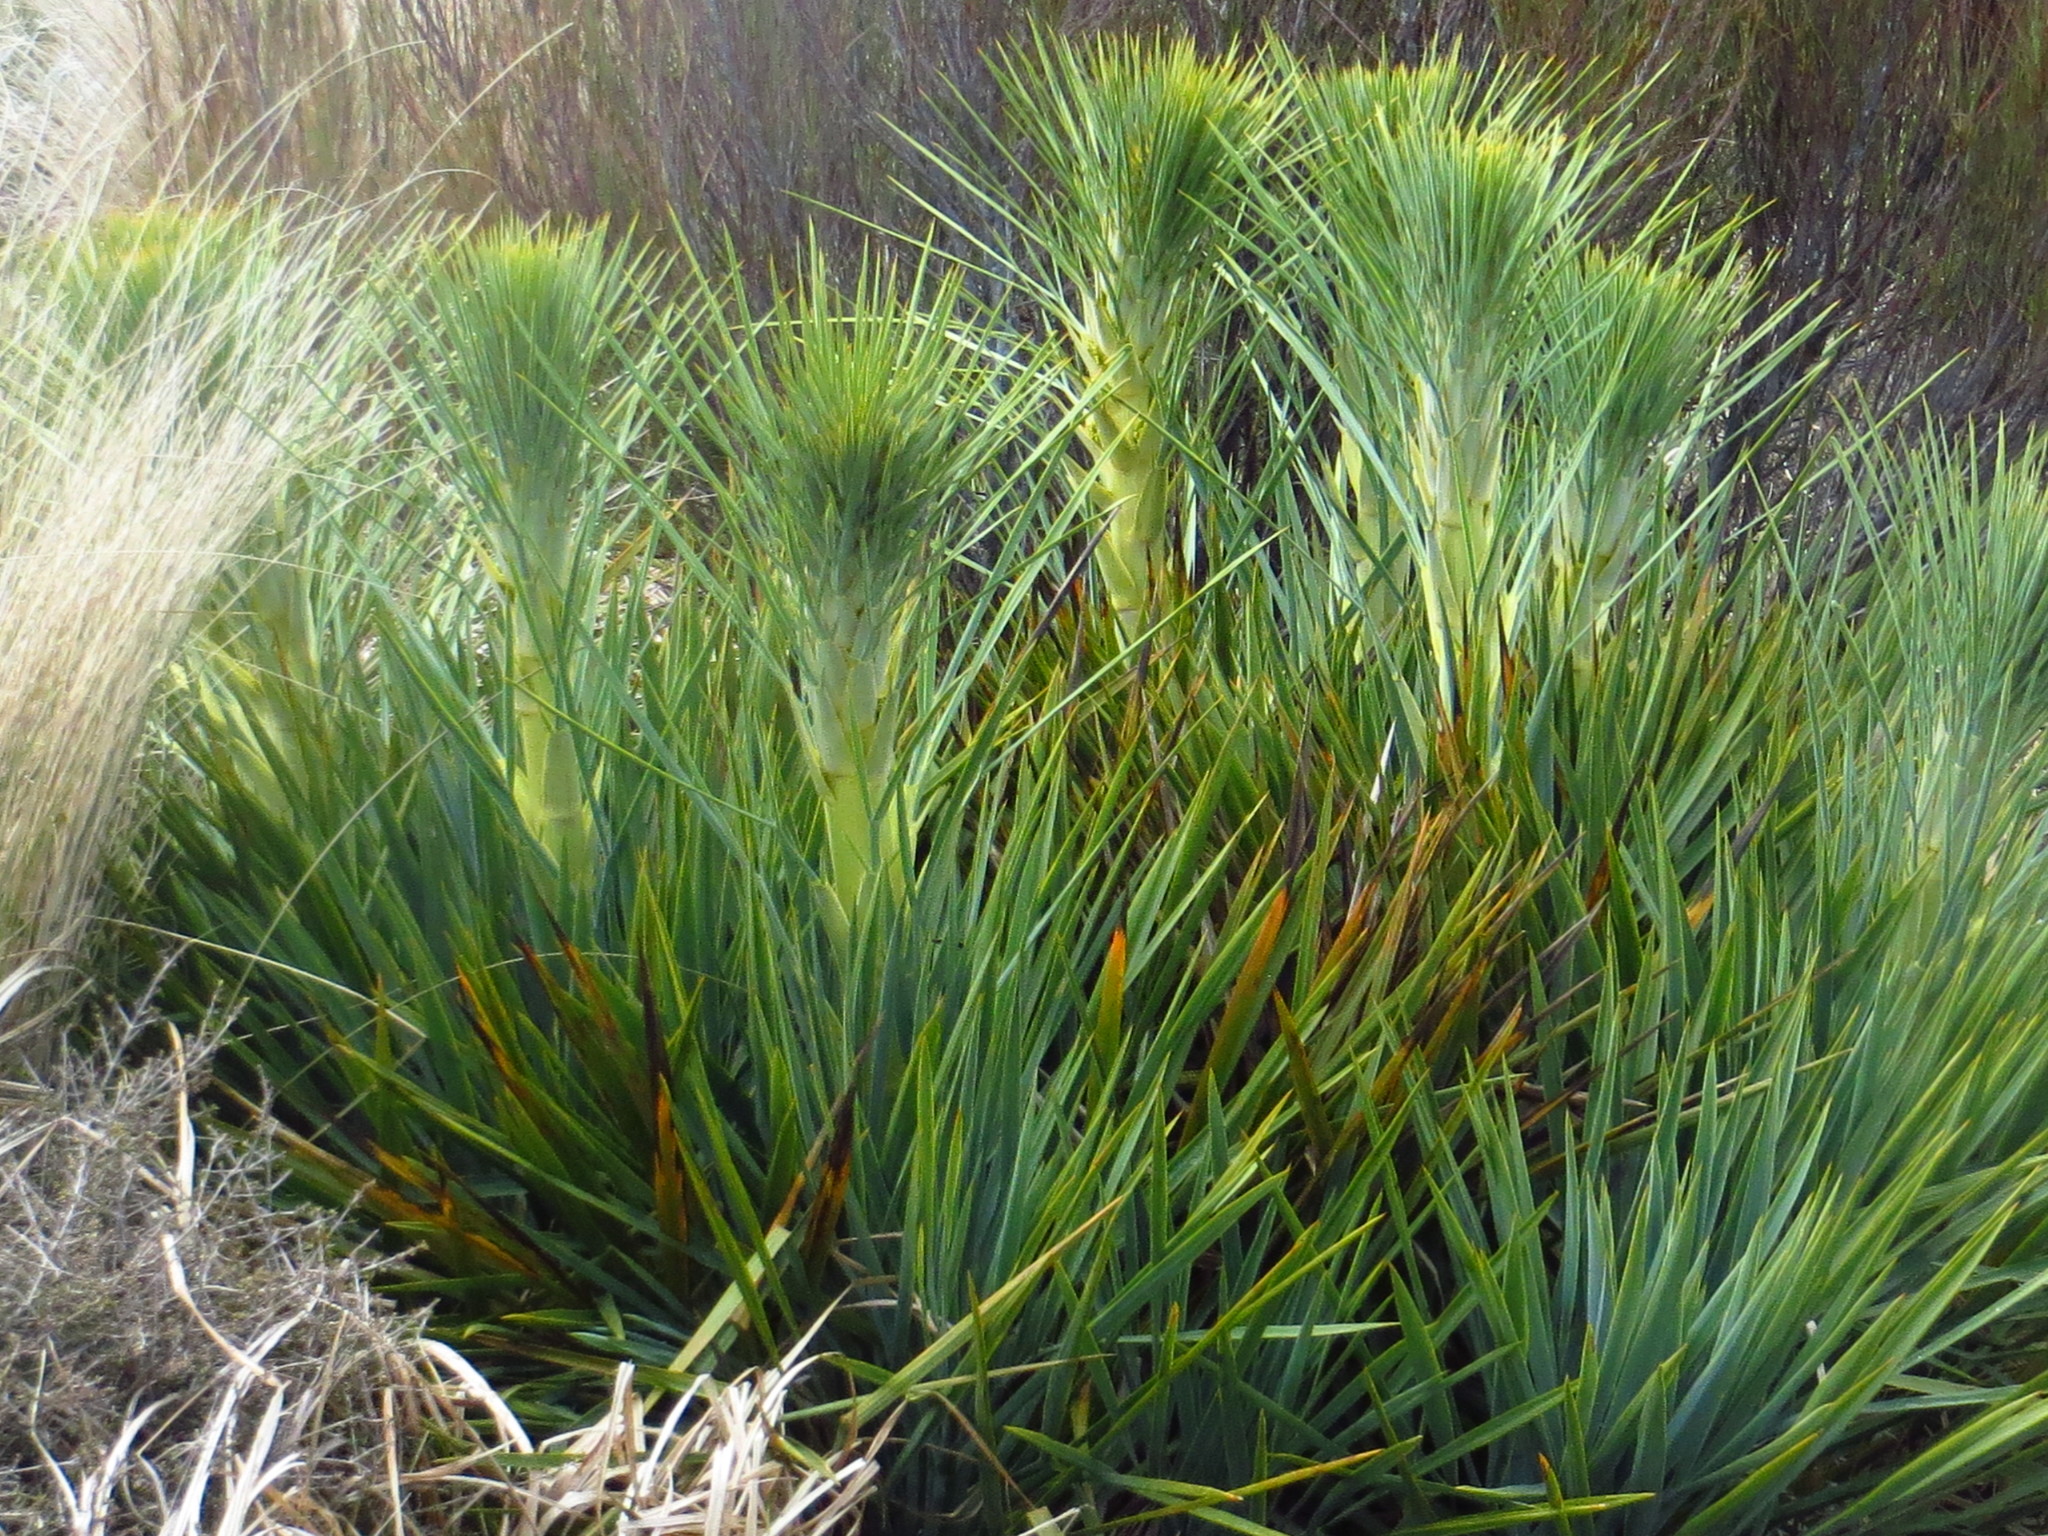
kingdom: Plantae
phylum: Tracheophyta
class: Magnoliopsida
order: Apiales
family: Apiaceae
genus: Aciphylla
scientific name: Aciphylla scott-thomsonii
